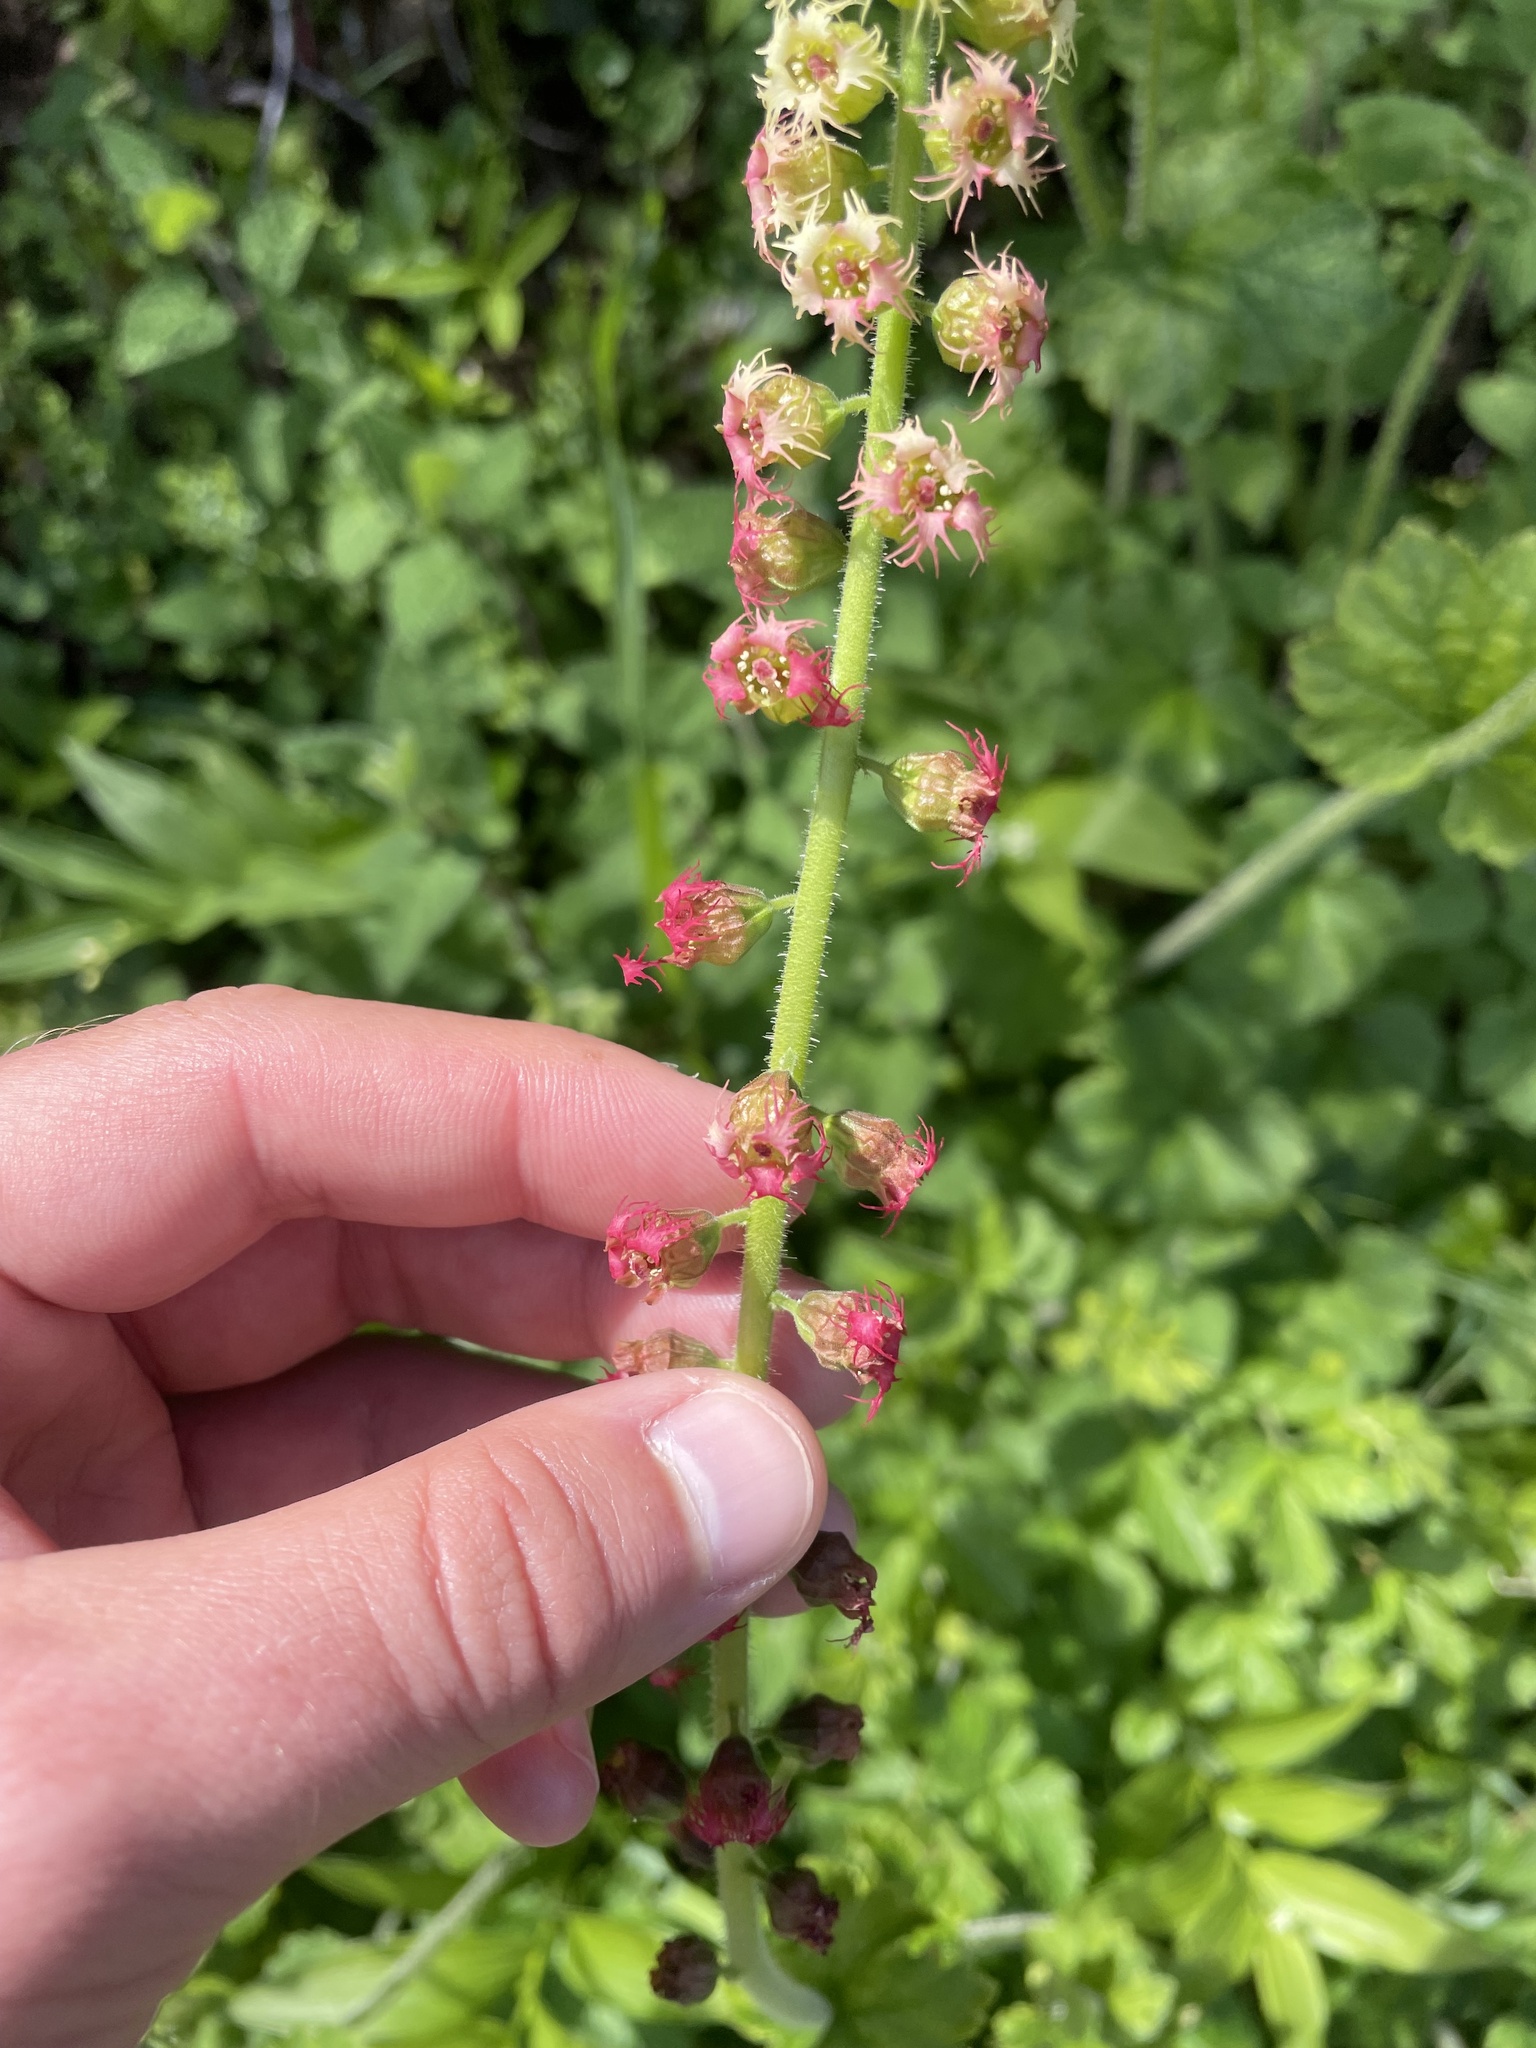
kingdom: Plantae
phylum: Tracheophyta
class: Magnoliopsida
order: Saxifragales
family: Saxifragaceae
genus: Tellima
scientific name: Tellima grandiflora
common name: Fringecups
